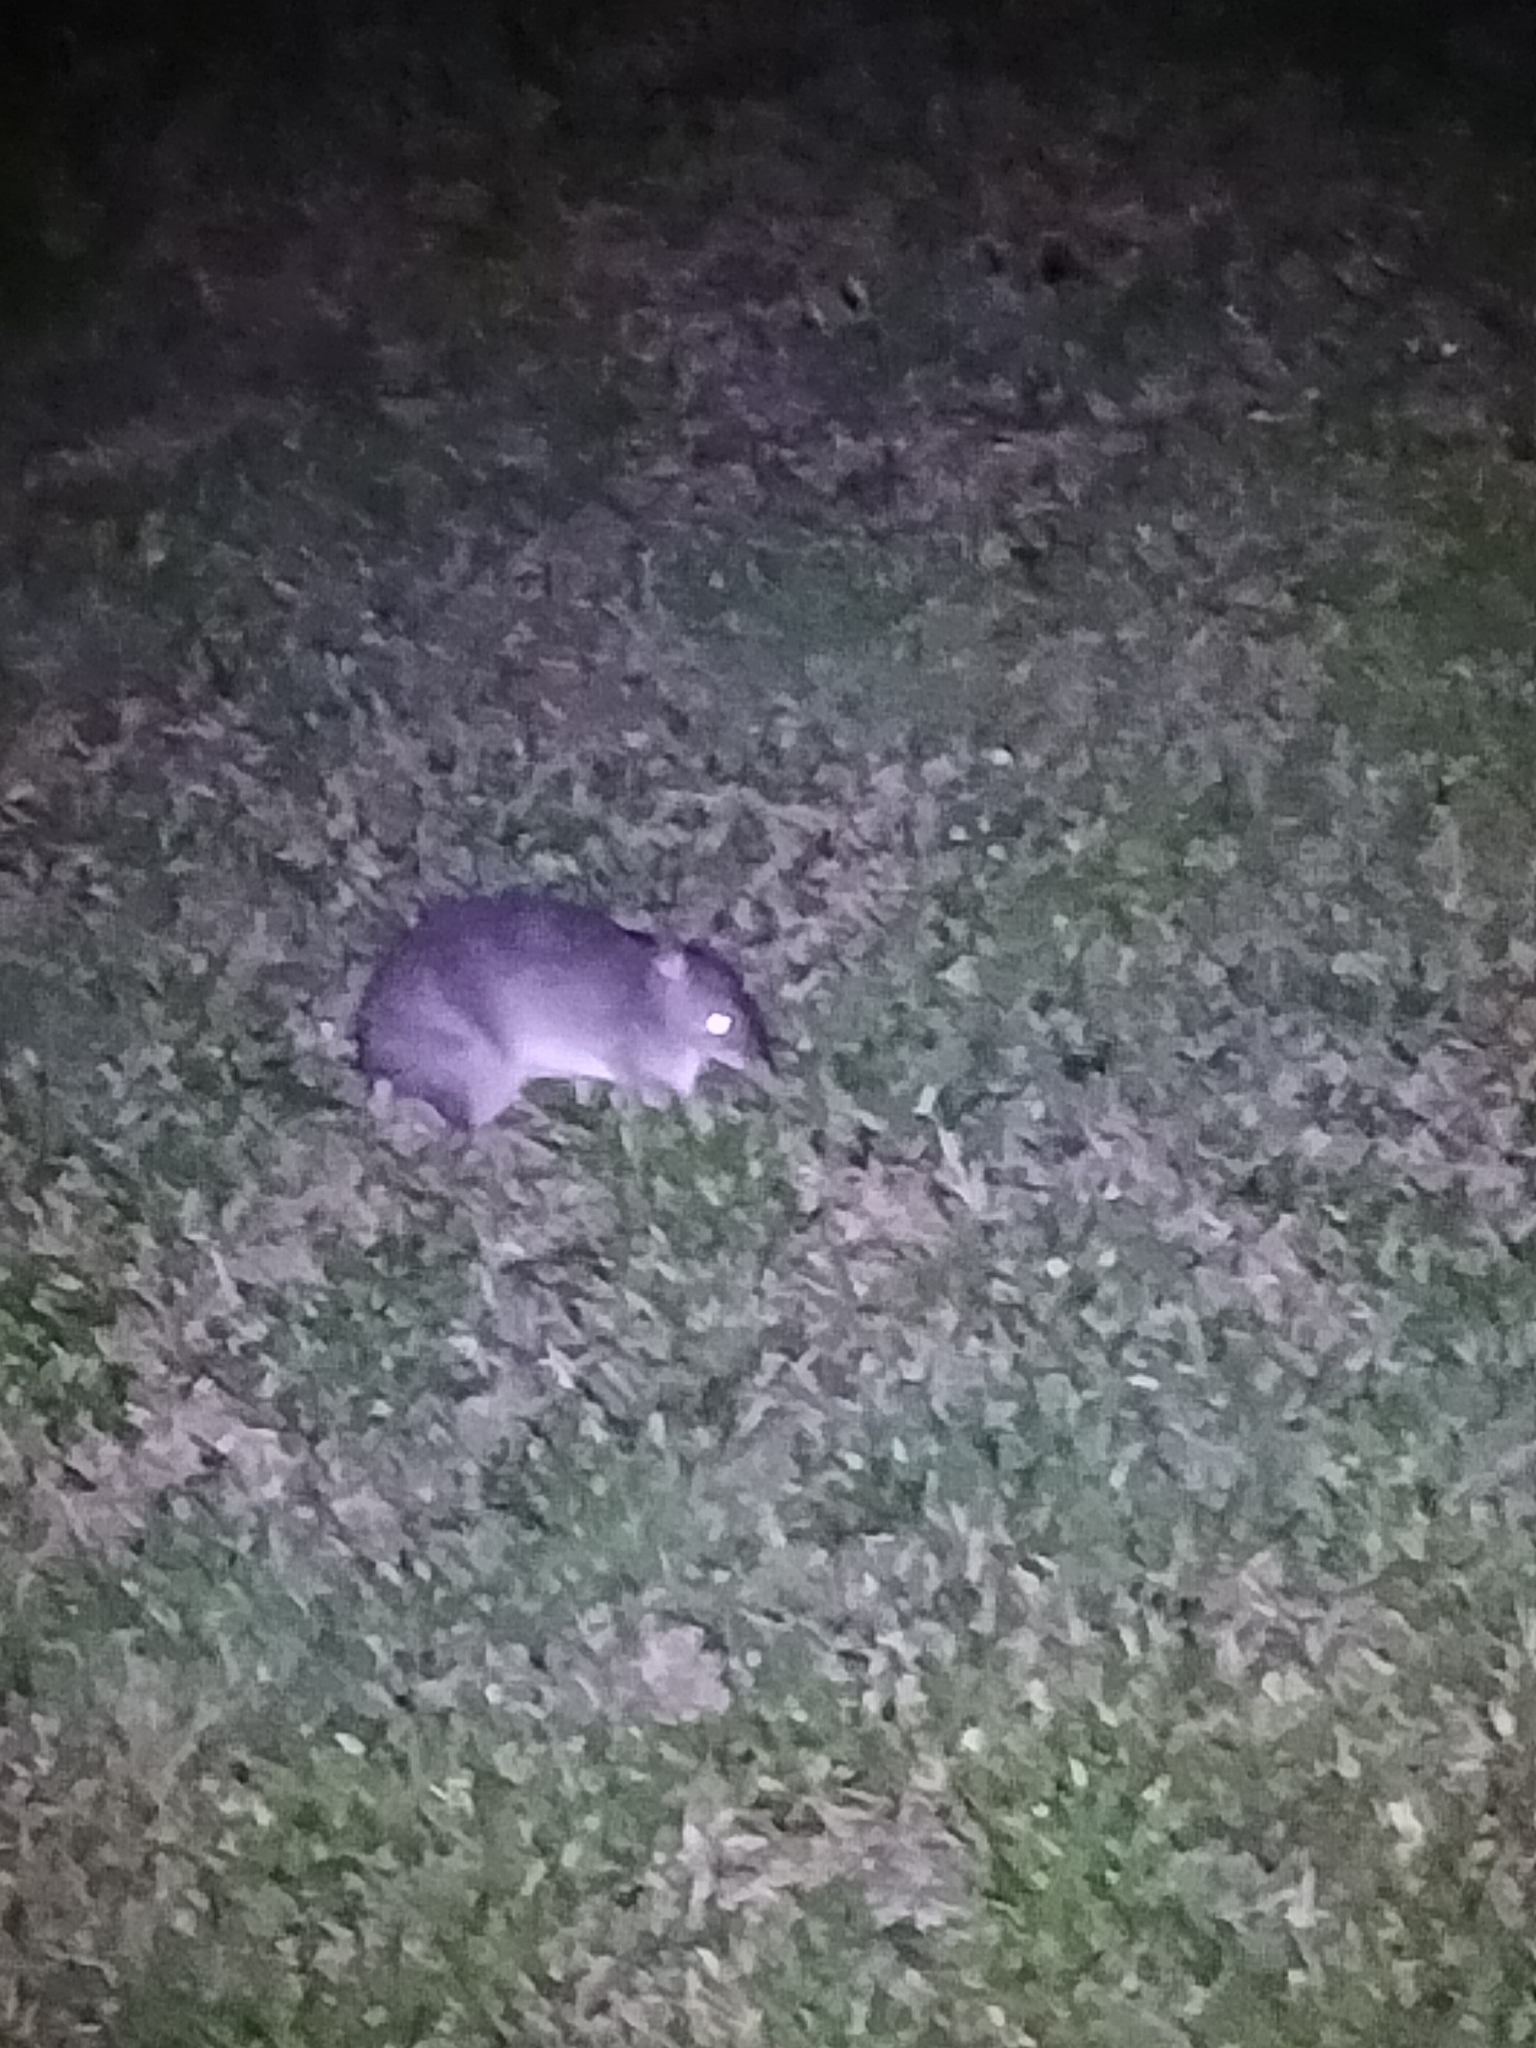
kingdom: Animalia
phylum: Chordata
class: Mammalia
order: Peramelemorphia
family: Peramelidae
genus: Perameles
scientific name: Perameles pallescens
